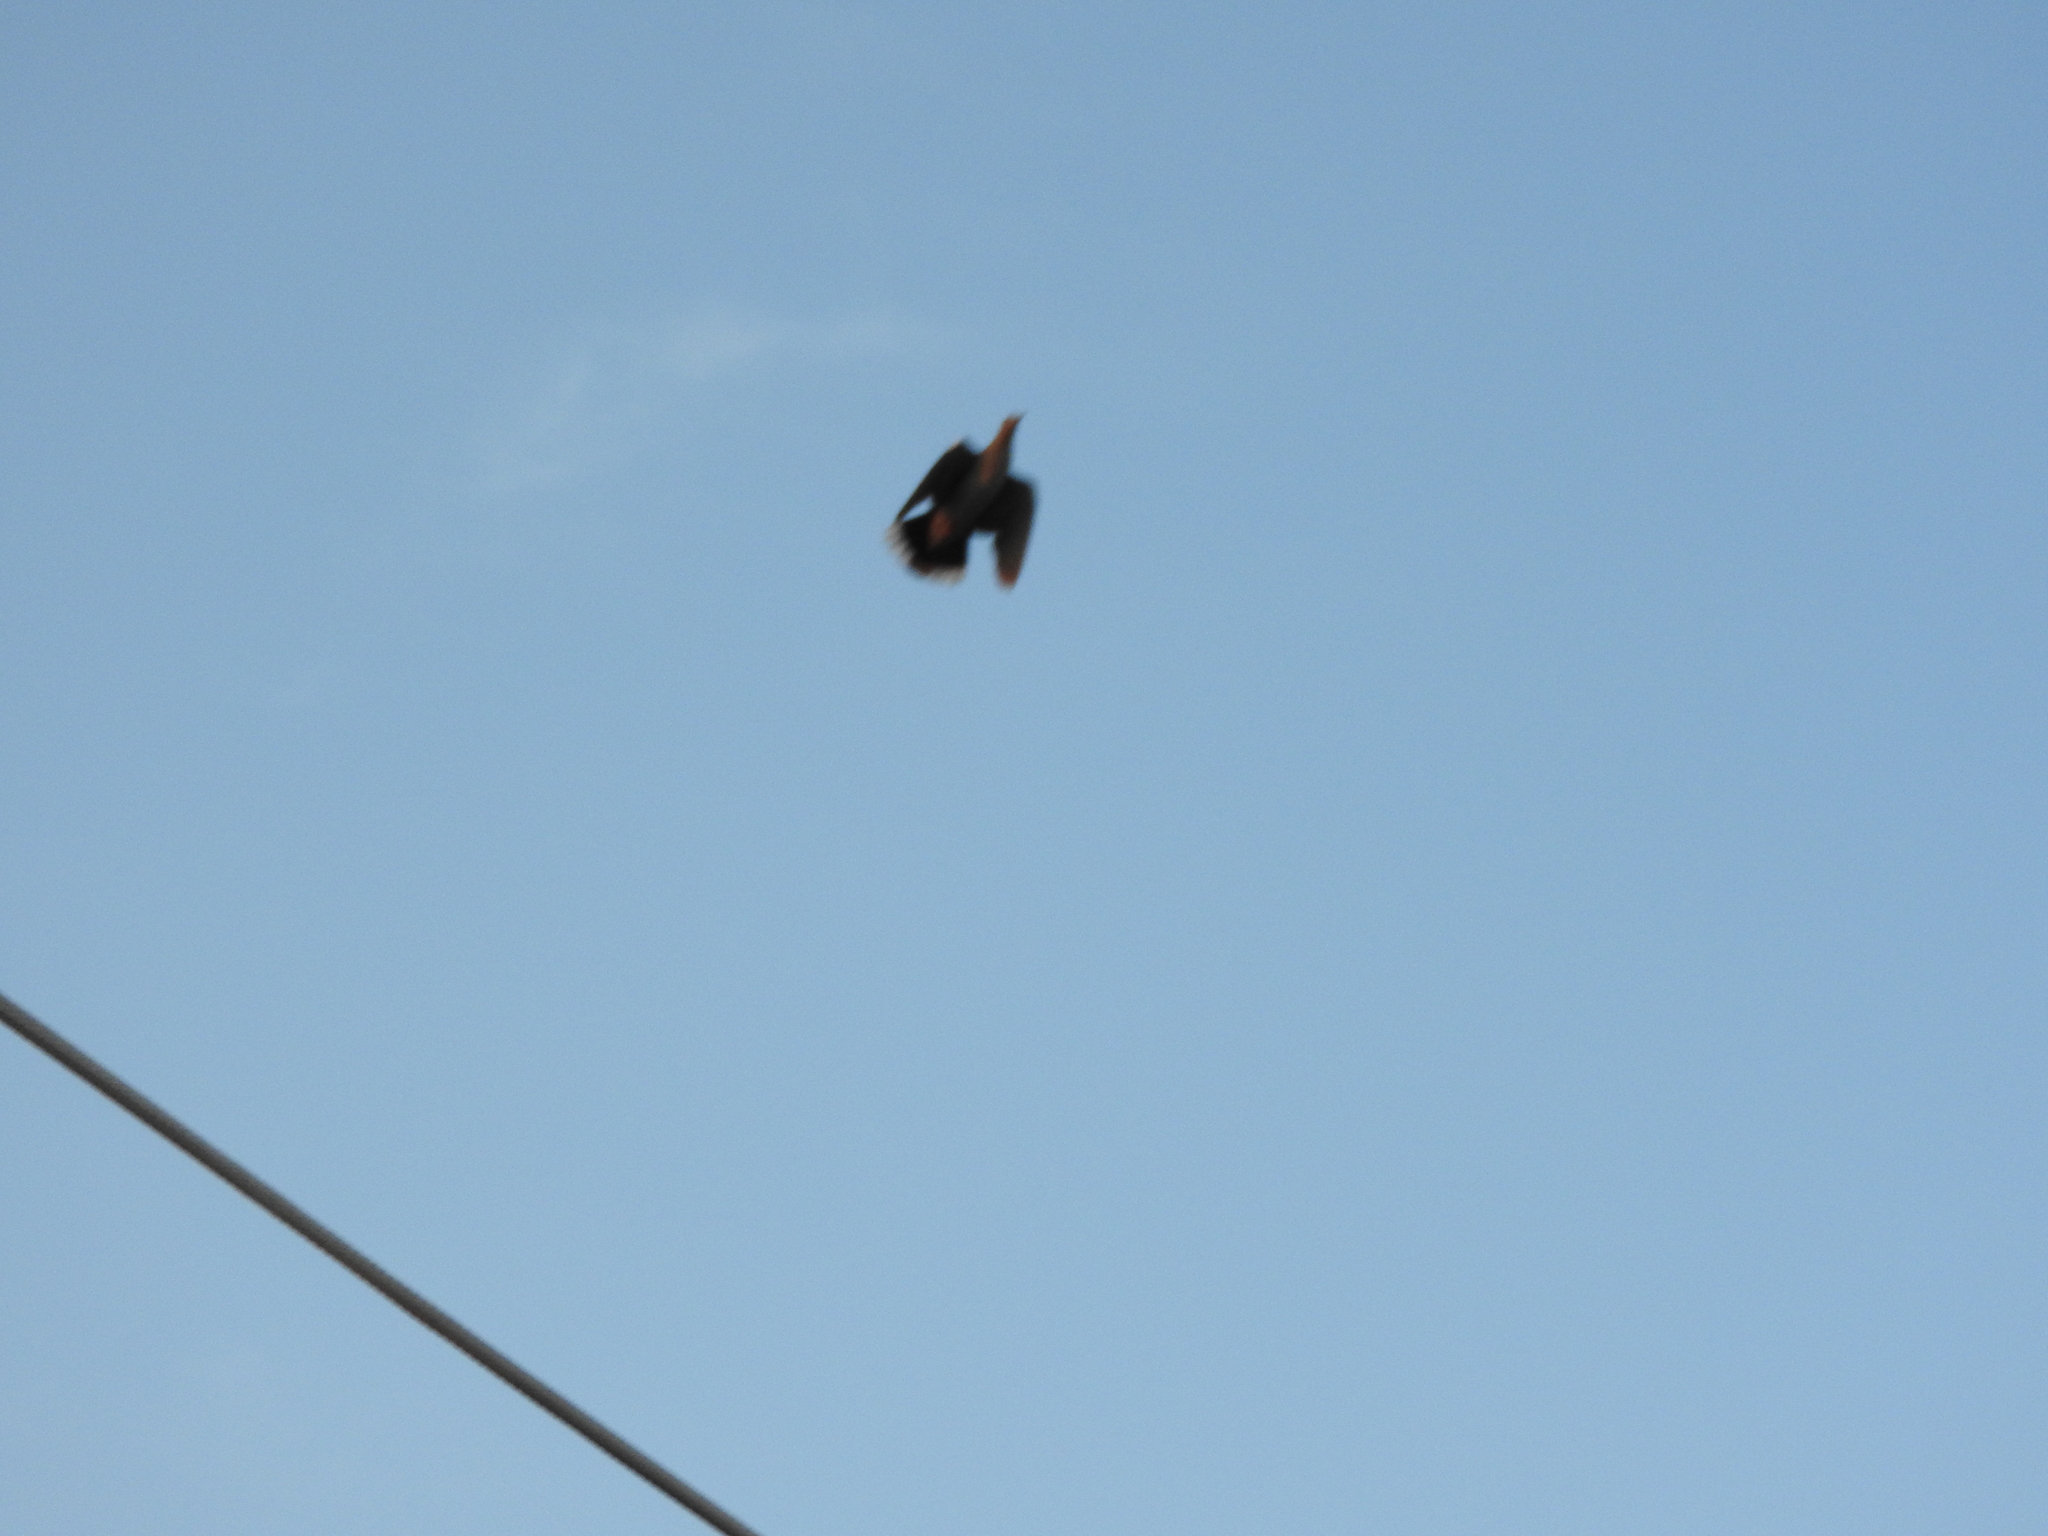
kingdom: Animalia
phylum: Chordata
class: Aves
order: Columbiformes
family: Columbidae
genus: Zenaida
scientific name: Zenaida asiatica
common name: White-winged dove
